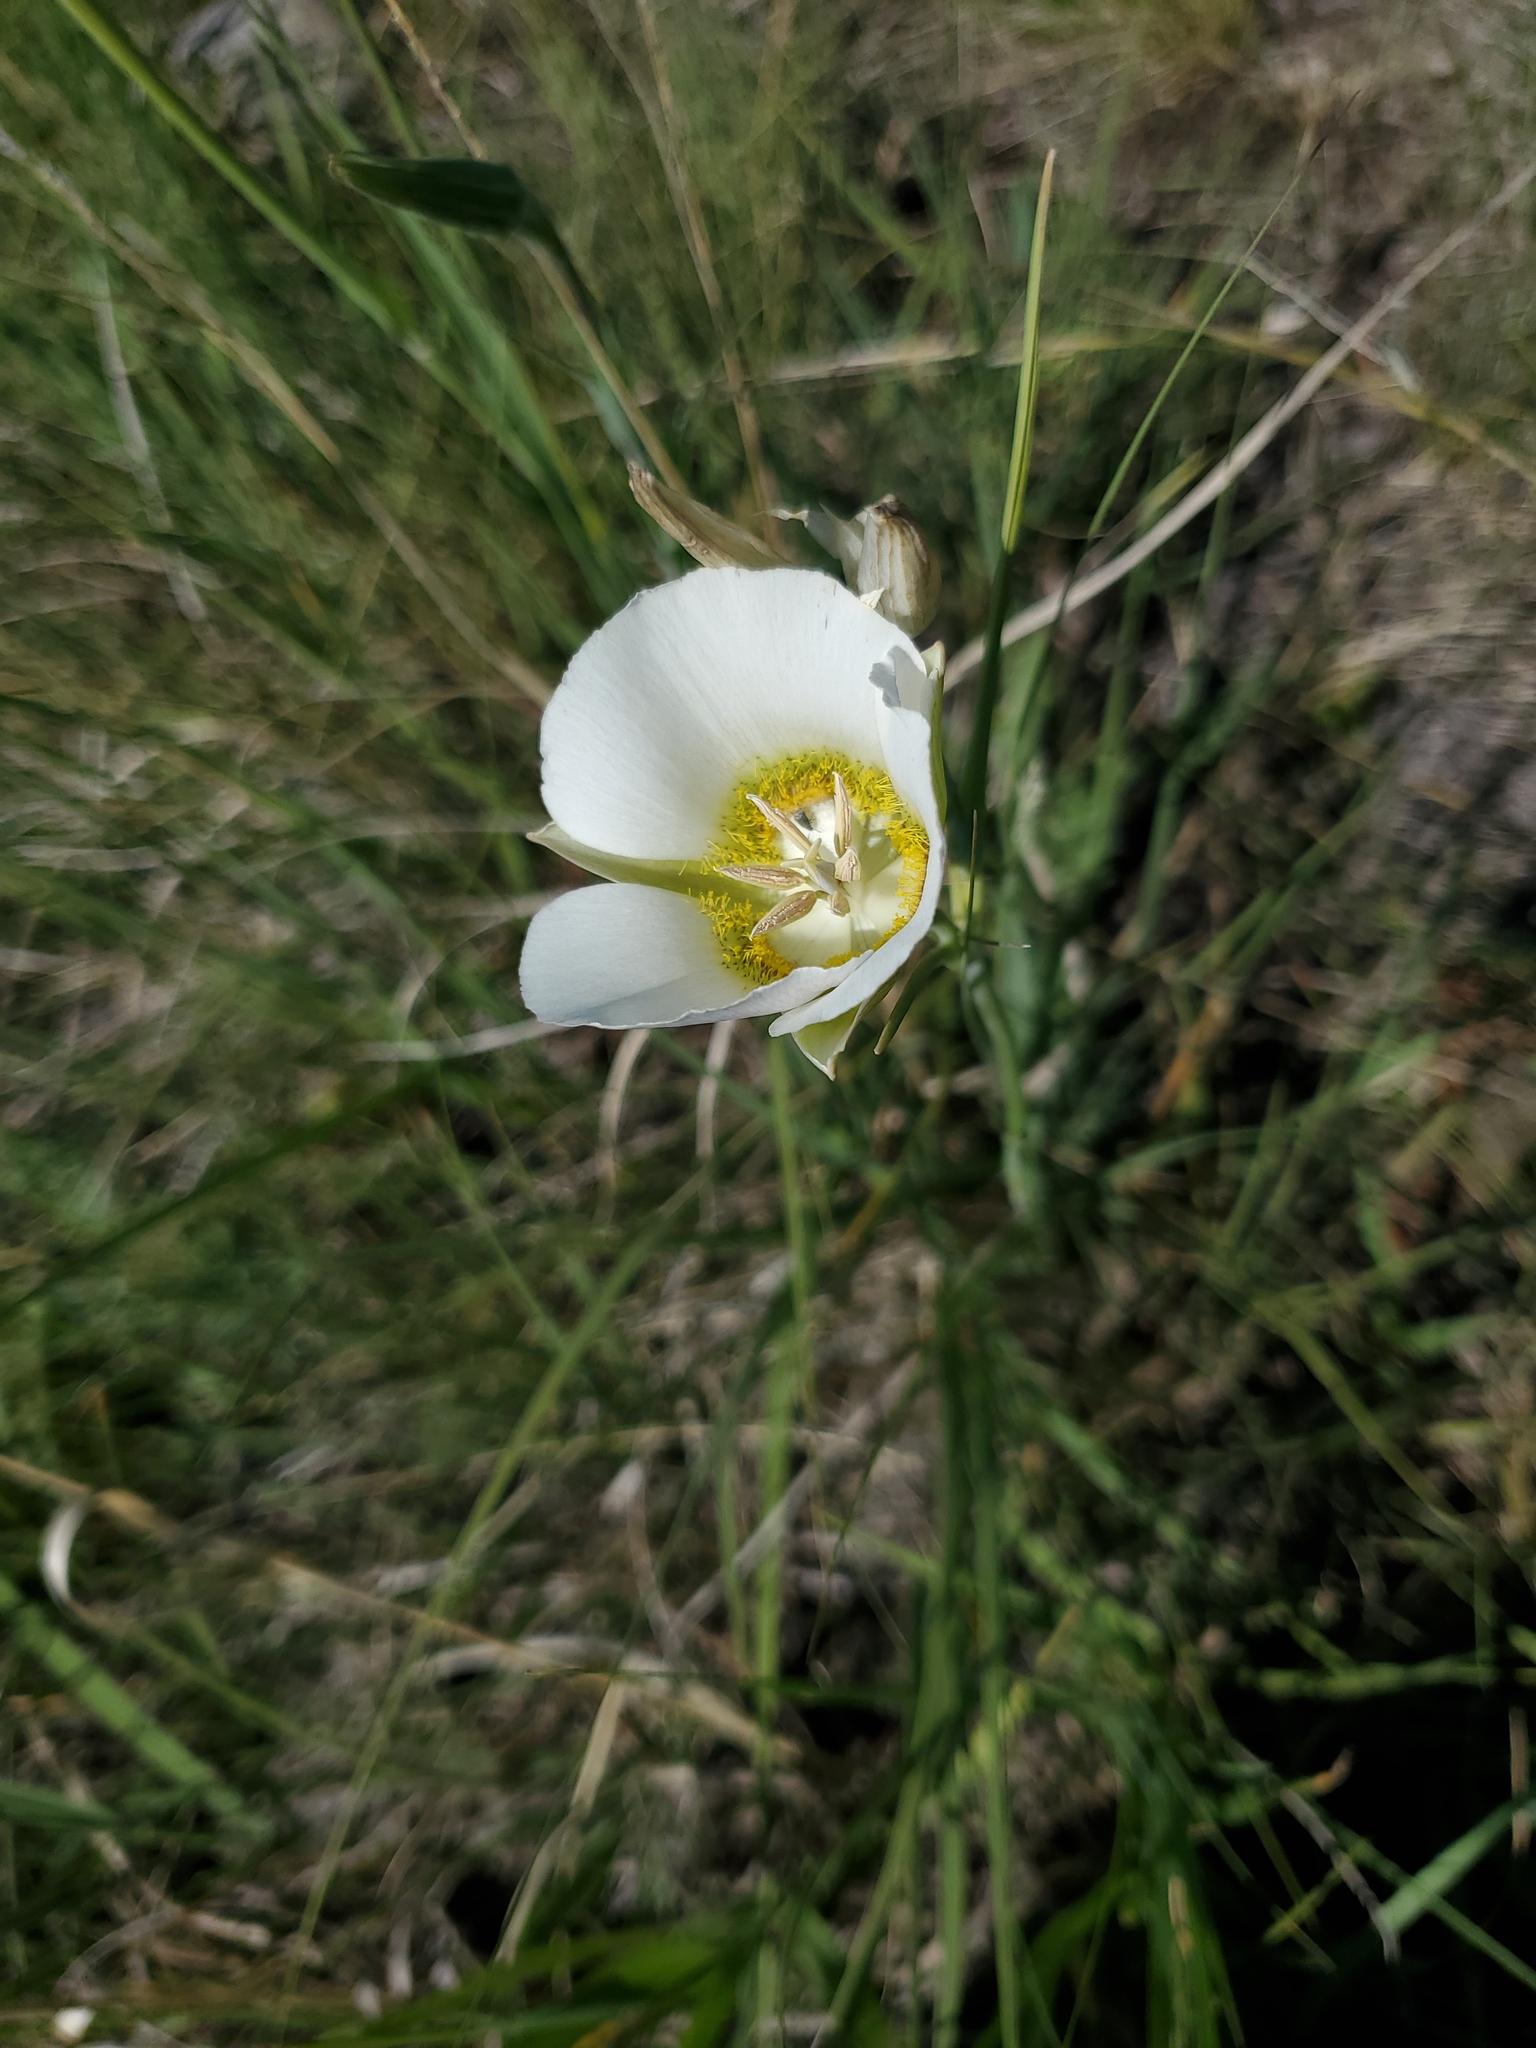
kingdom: Plantae
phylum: Tracheophyta
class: Liliopsida
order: Liliales
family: Liliaceae
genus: Calochortus
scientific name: Calochortus gunnisonii
